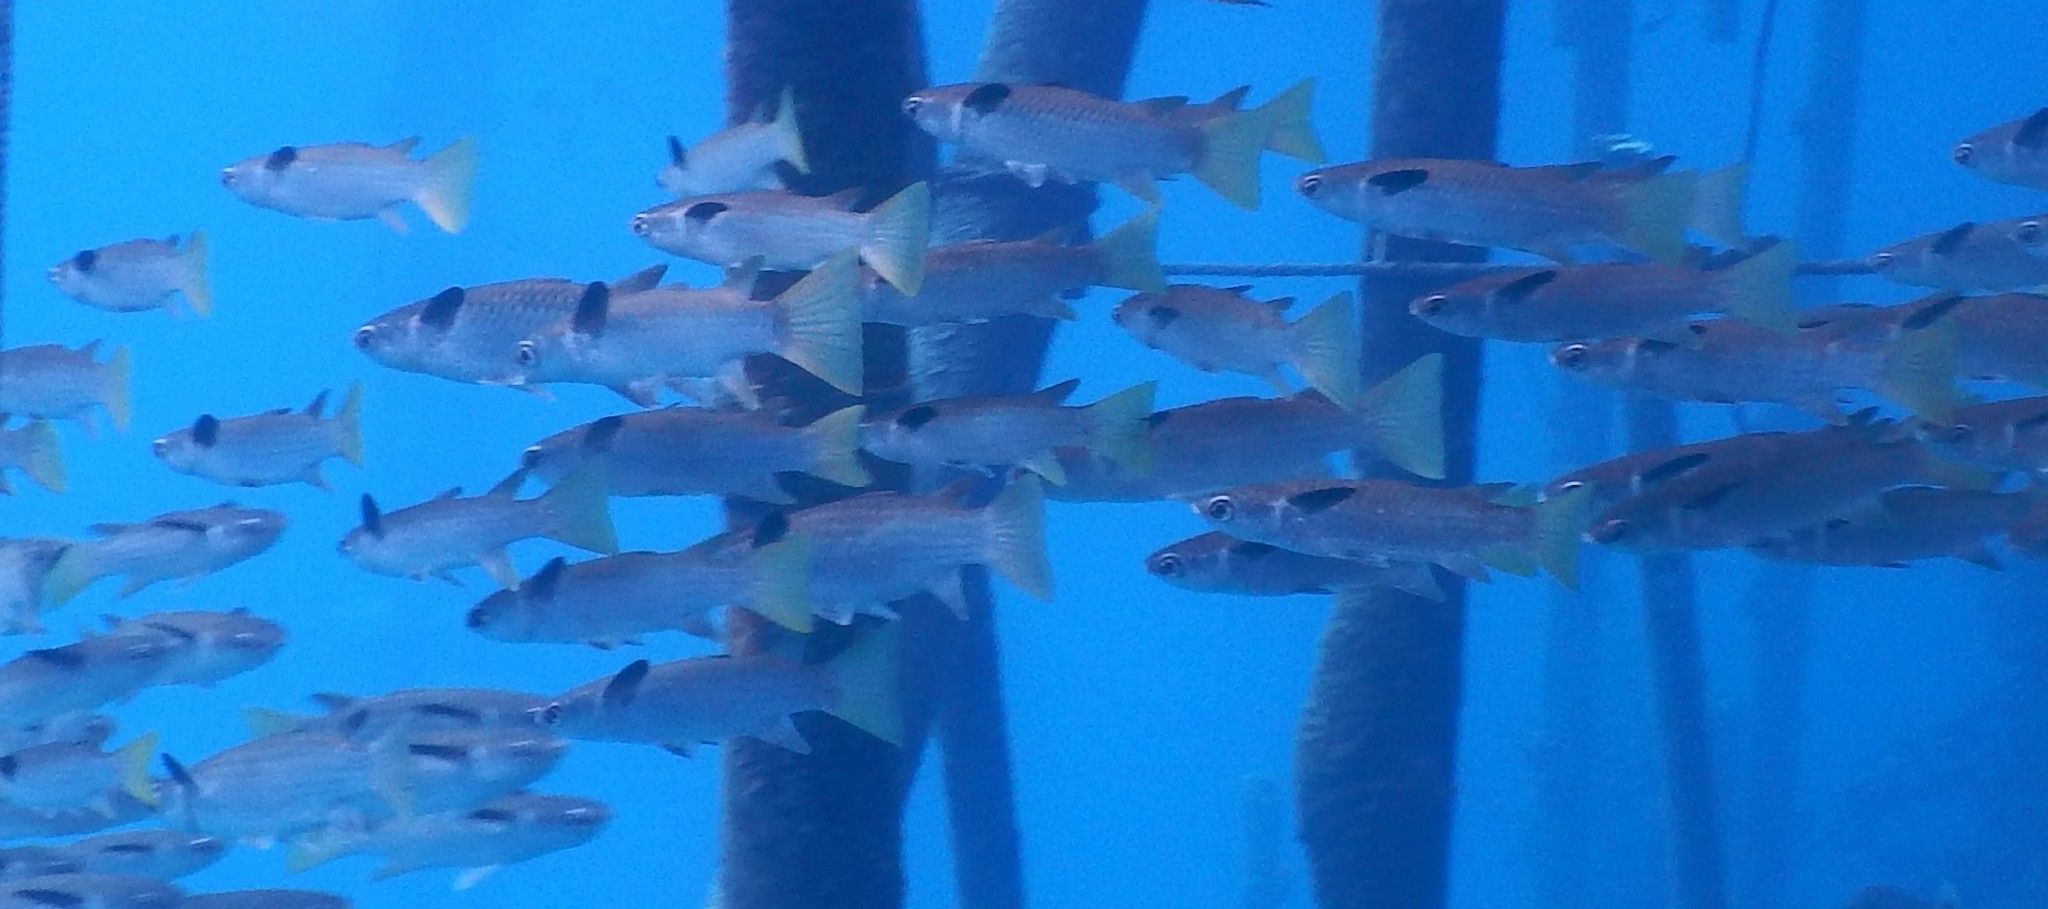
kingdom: Animalia
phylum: Chordata
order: Mugiliformes
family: Mugilidae
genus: Ellochelon
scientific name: Ellochelon vaigiensis
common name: Squaretail mullet
